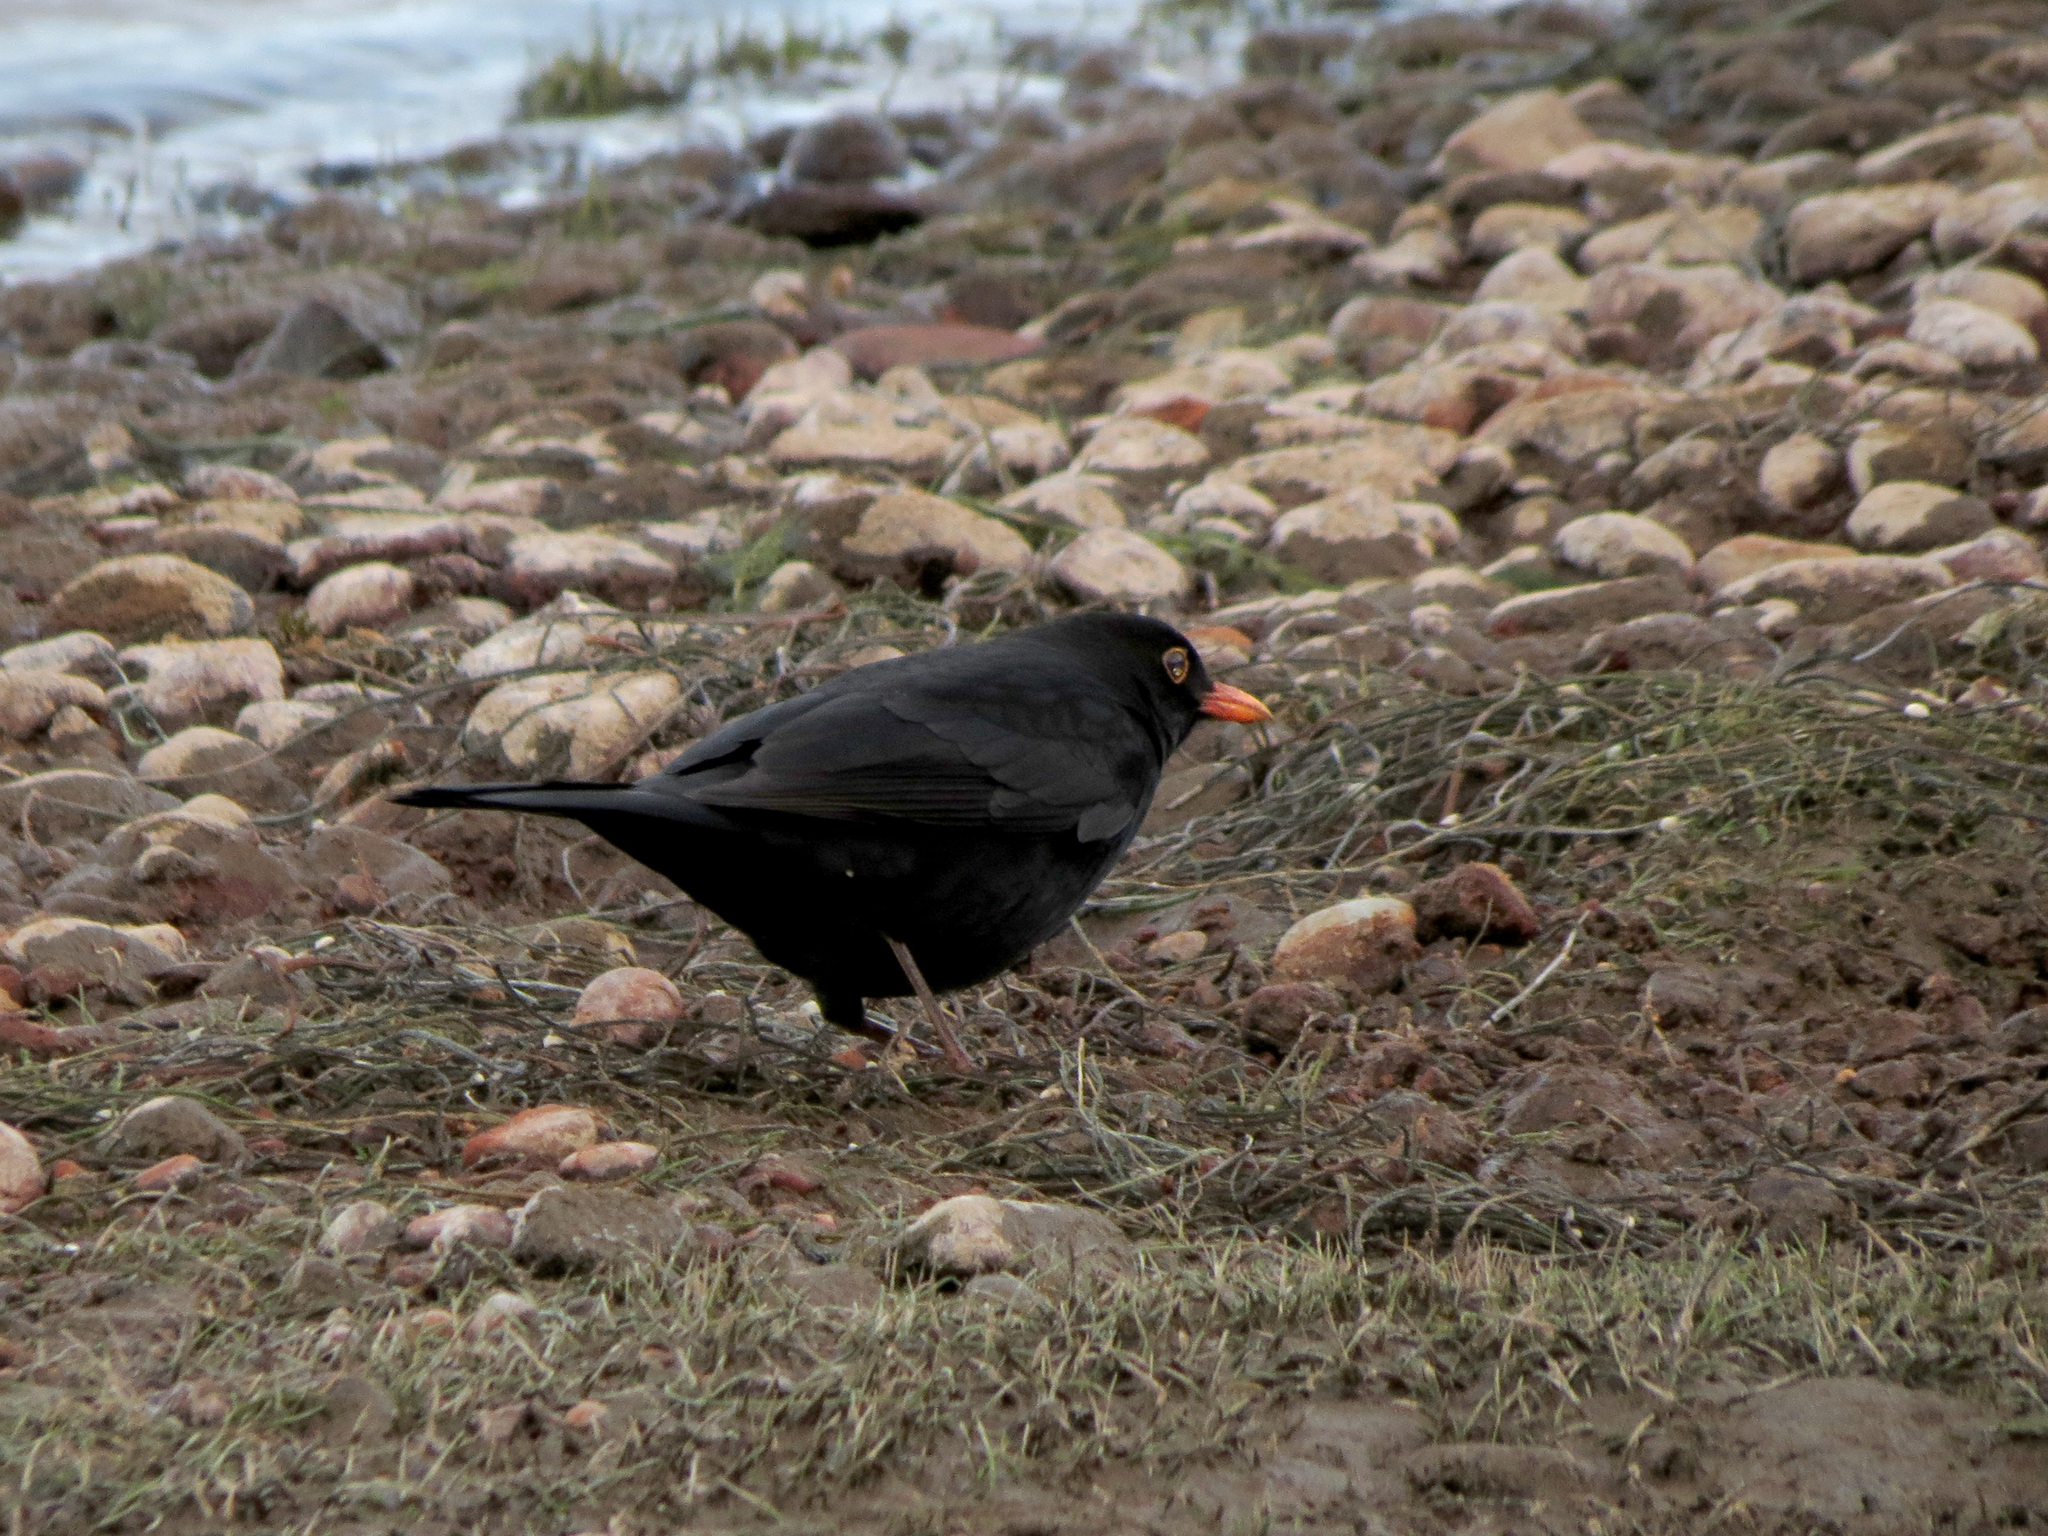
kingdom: Animalia
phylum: Chordata
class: Aves
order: Passeriformes
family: Turdidae
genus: Turdus
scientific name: Turdus merula
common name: Common blackbird
